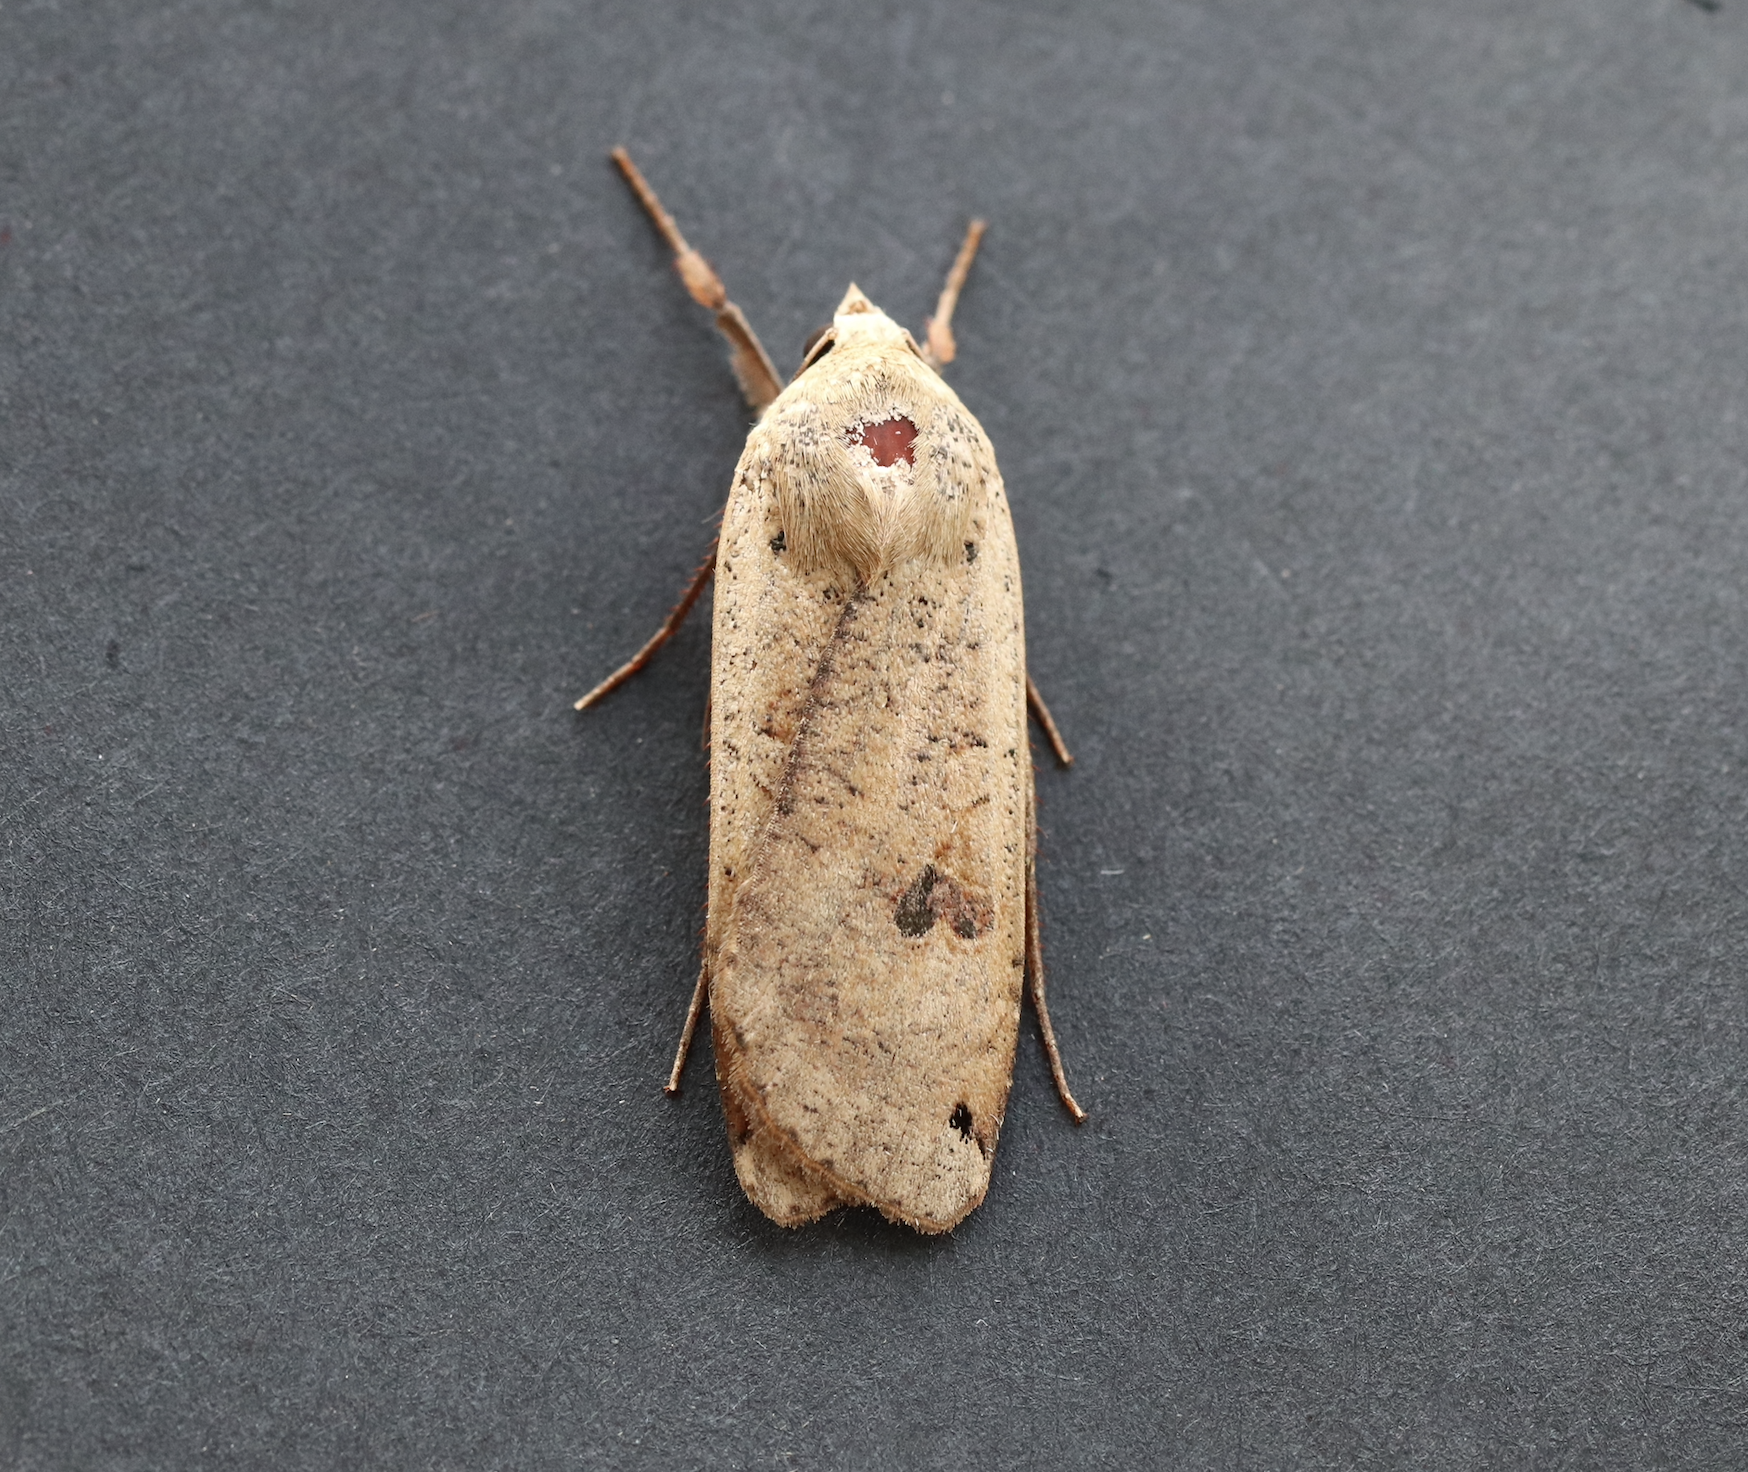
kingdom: Animalia
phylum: Arthropoda
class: Insecta
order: Lepidoptera
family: Noctuidae
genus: Noctua
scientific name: Noctua pronuba
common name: Large yellow underwing
